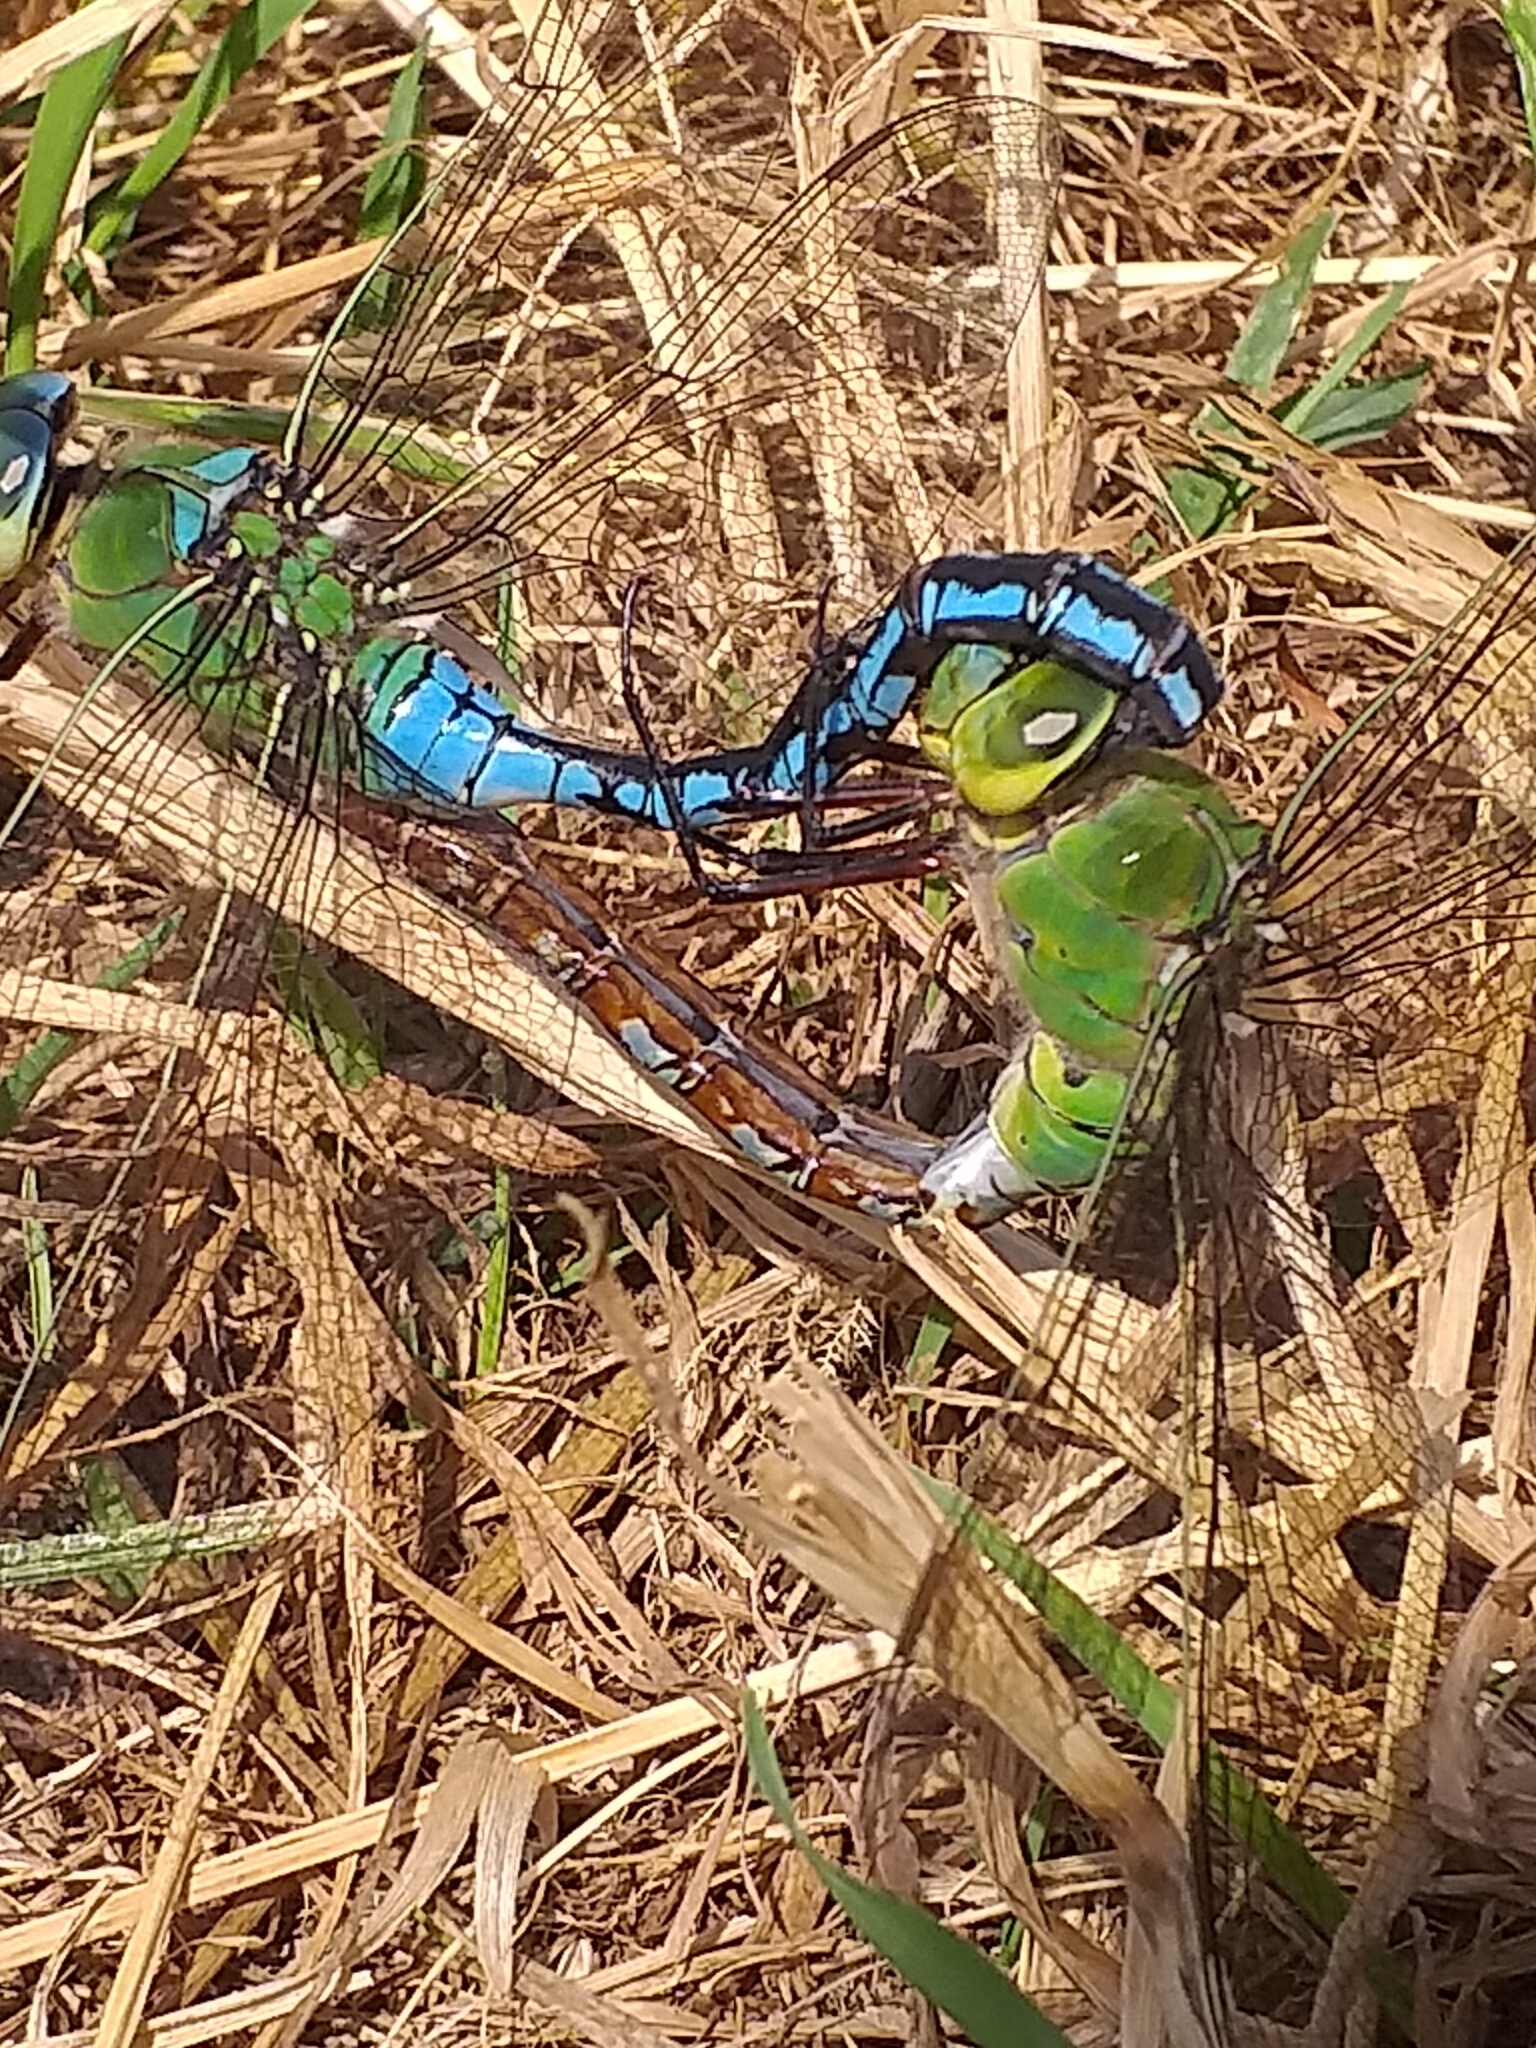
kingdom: Animalia
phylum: Arthropoda
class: Insecta
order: Odonata
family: Aeshnidae
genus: Anax
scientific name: Anax imperator
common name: Emperor dragonfly
